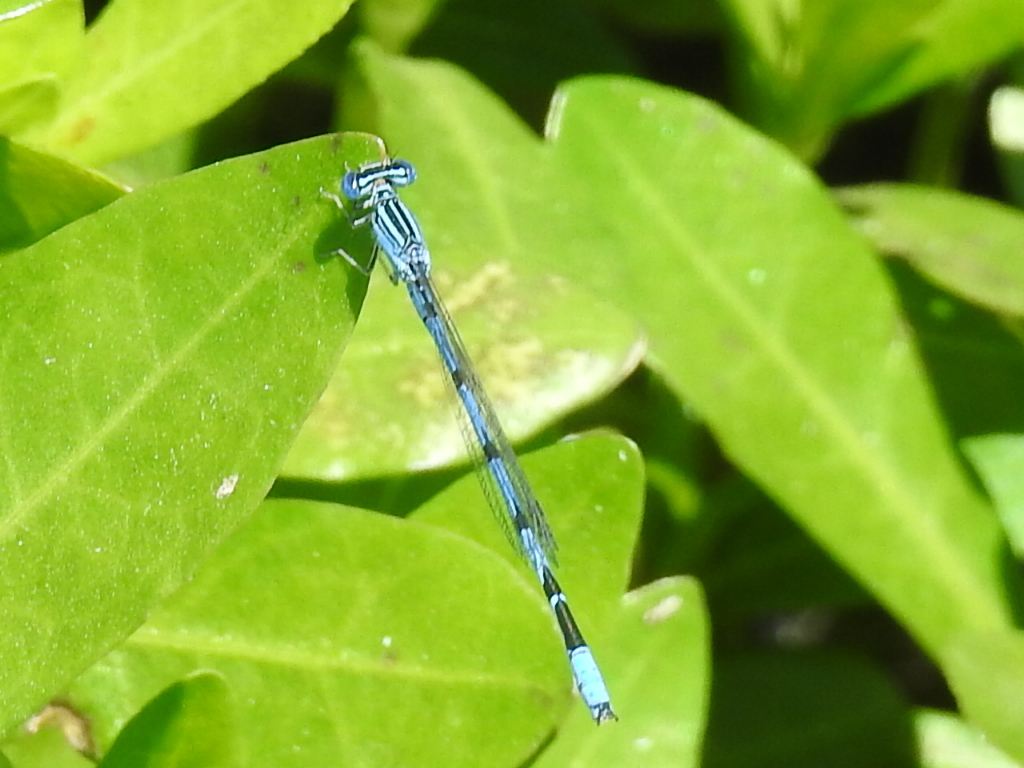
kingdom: Animalia
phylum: Arthropoda
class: Insecta
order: Odonata
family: Coenagrionidae
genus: Enallagma
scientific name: Enallagma basidens
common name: Double-striped bluet
